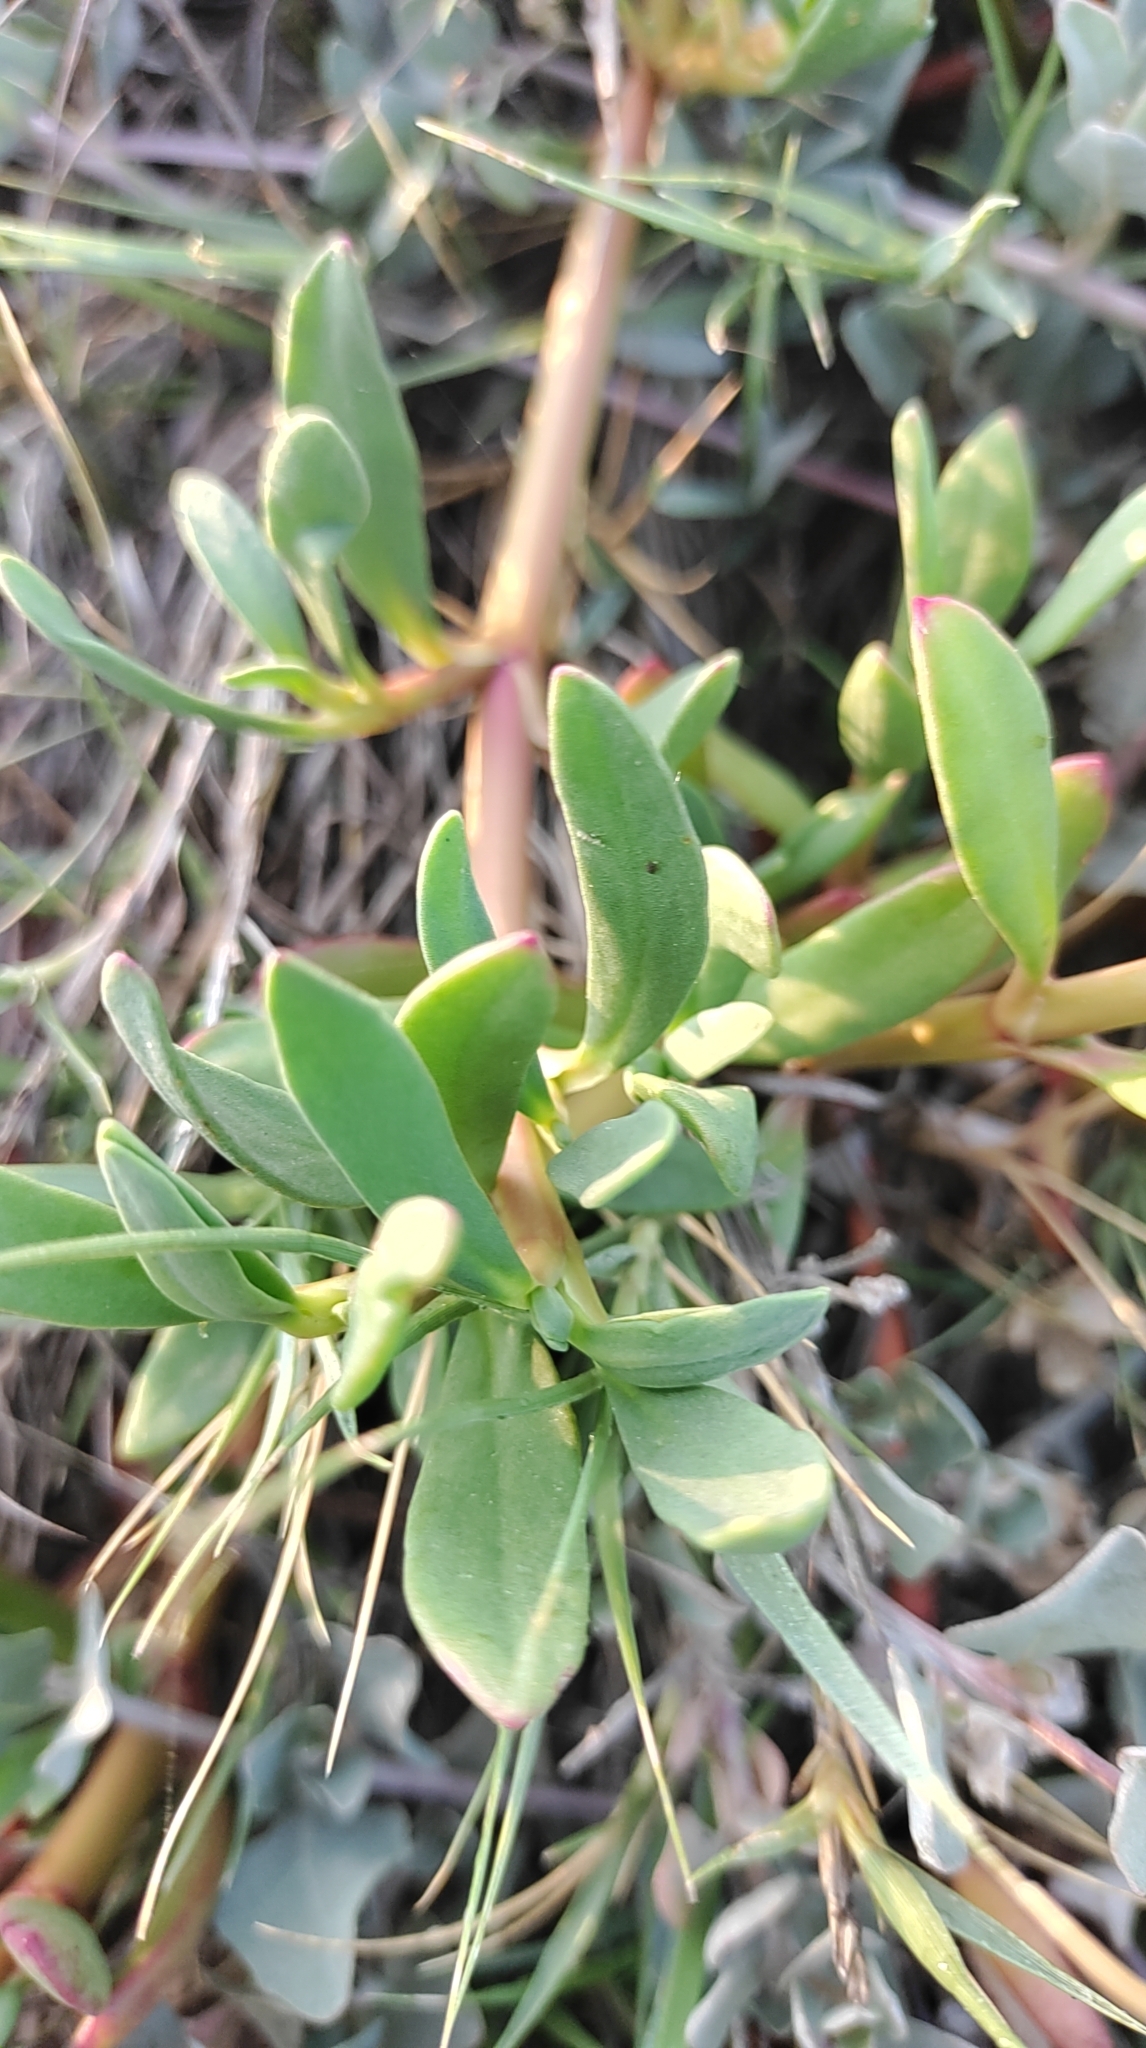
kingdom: Plantae
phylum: Tracheophyta
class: Magnoliopsida
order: Caryophyllales
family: Aizoaceae
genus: Sesuvium
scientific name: Sesuvium portulacastrum
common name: Sea-purslane
